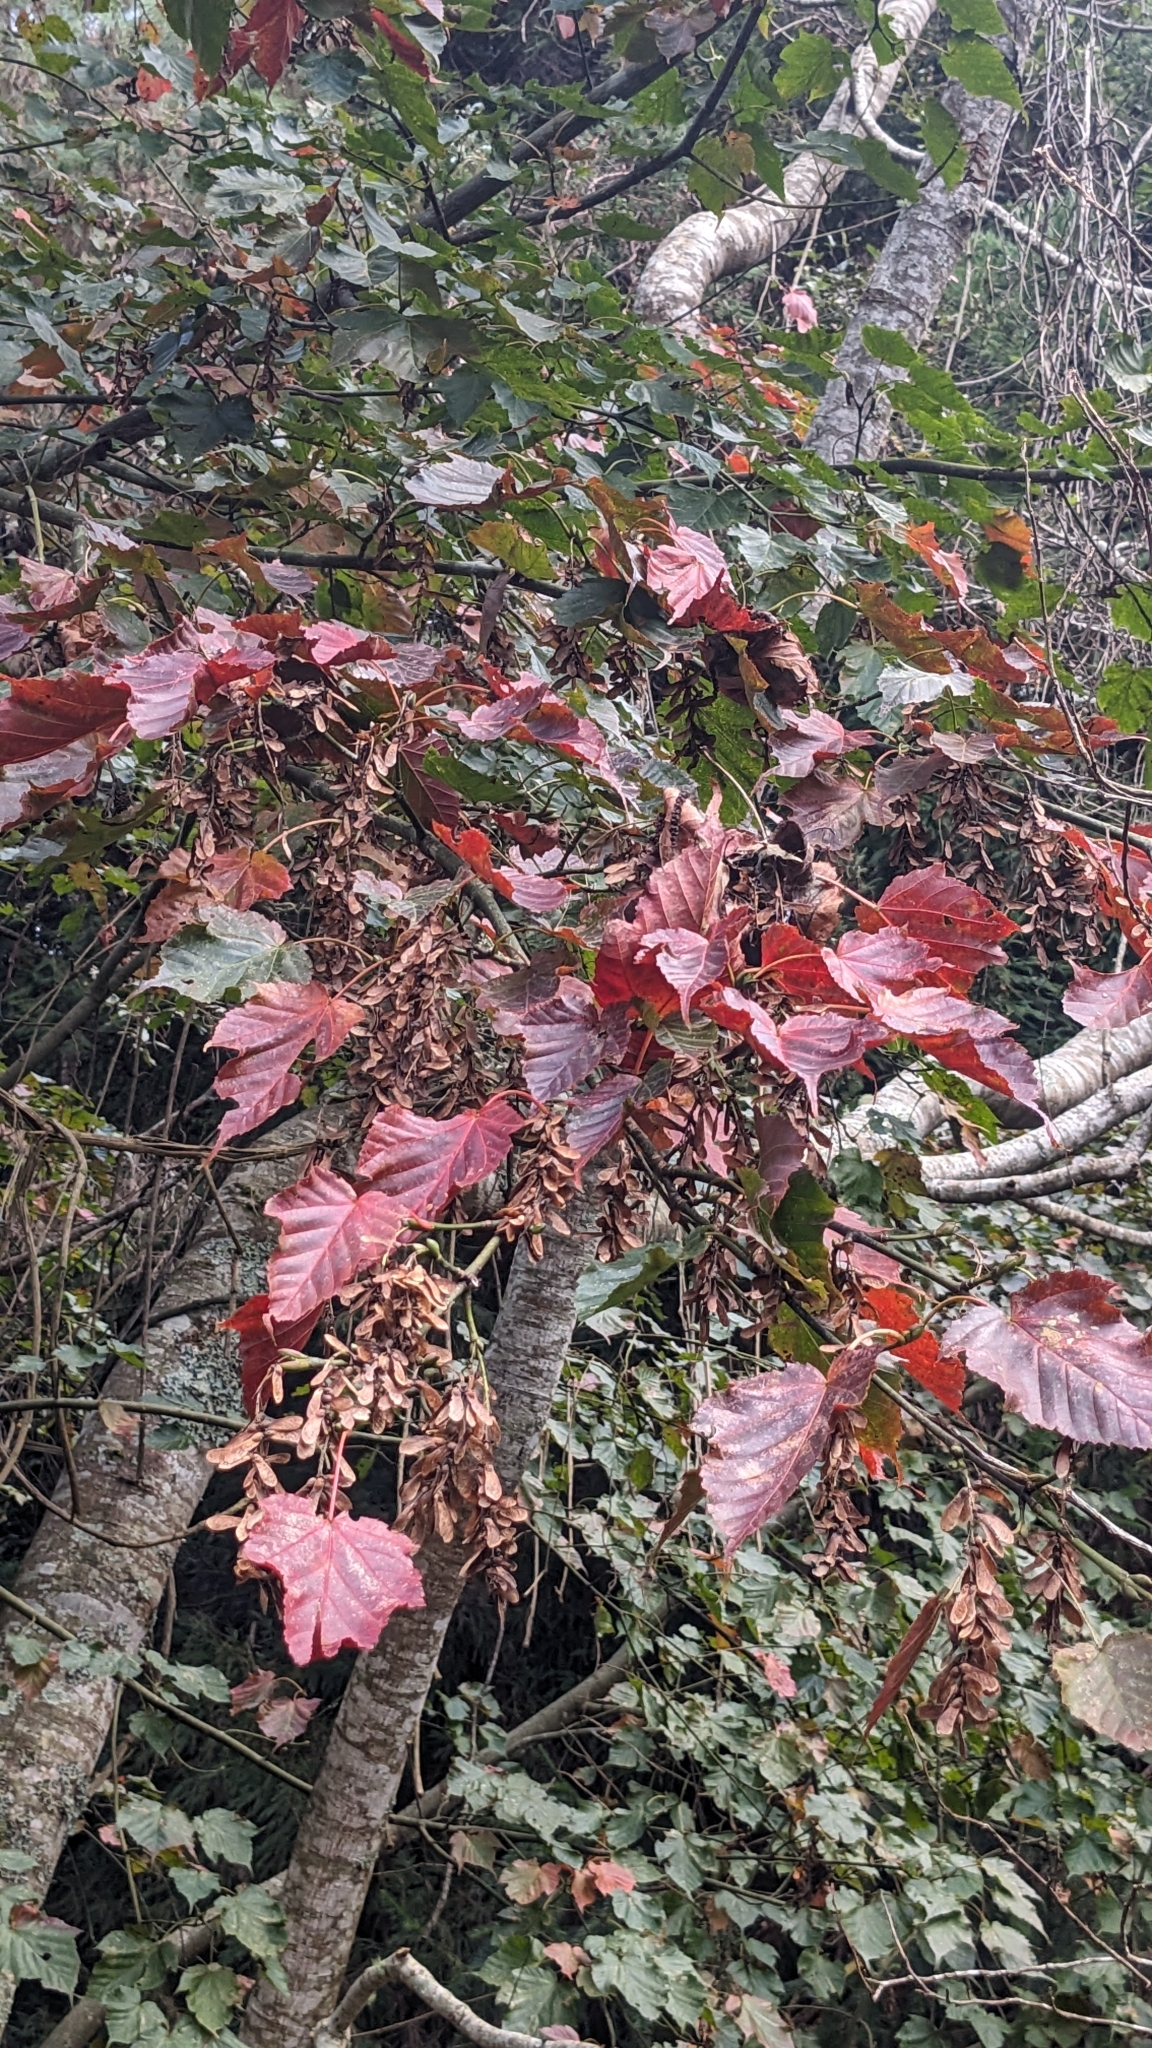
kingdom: Plantae
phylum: Tracheophyta
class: Magnoliopsida
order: Sapindales
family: Sapindaceae
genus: Acer
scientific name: Acer caudatifolium
